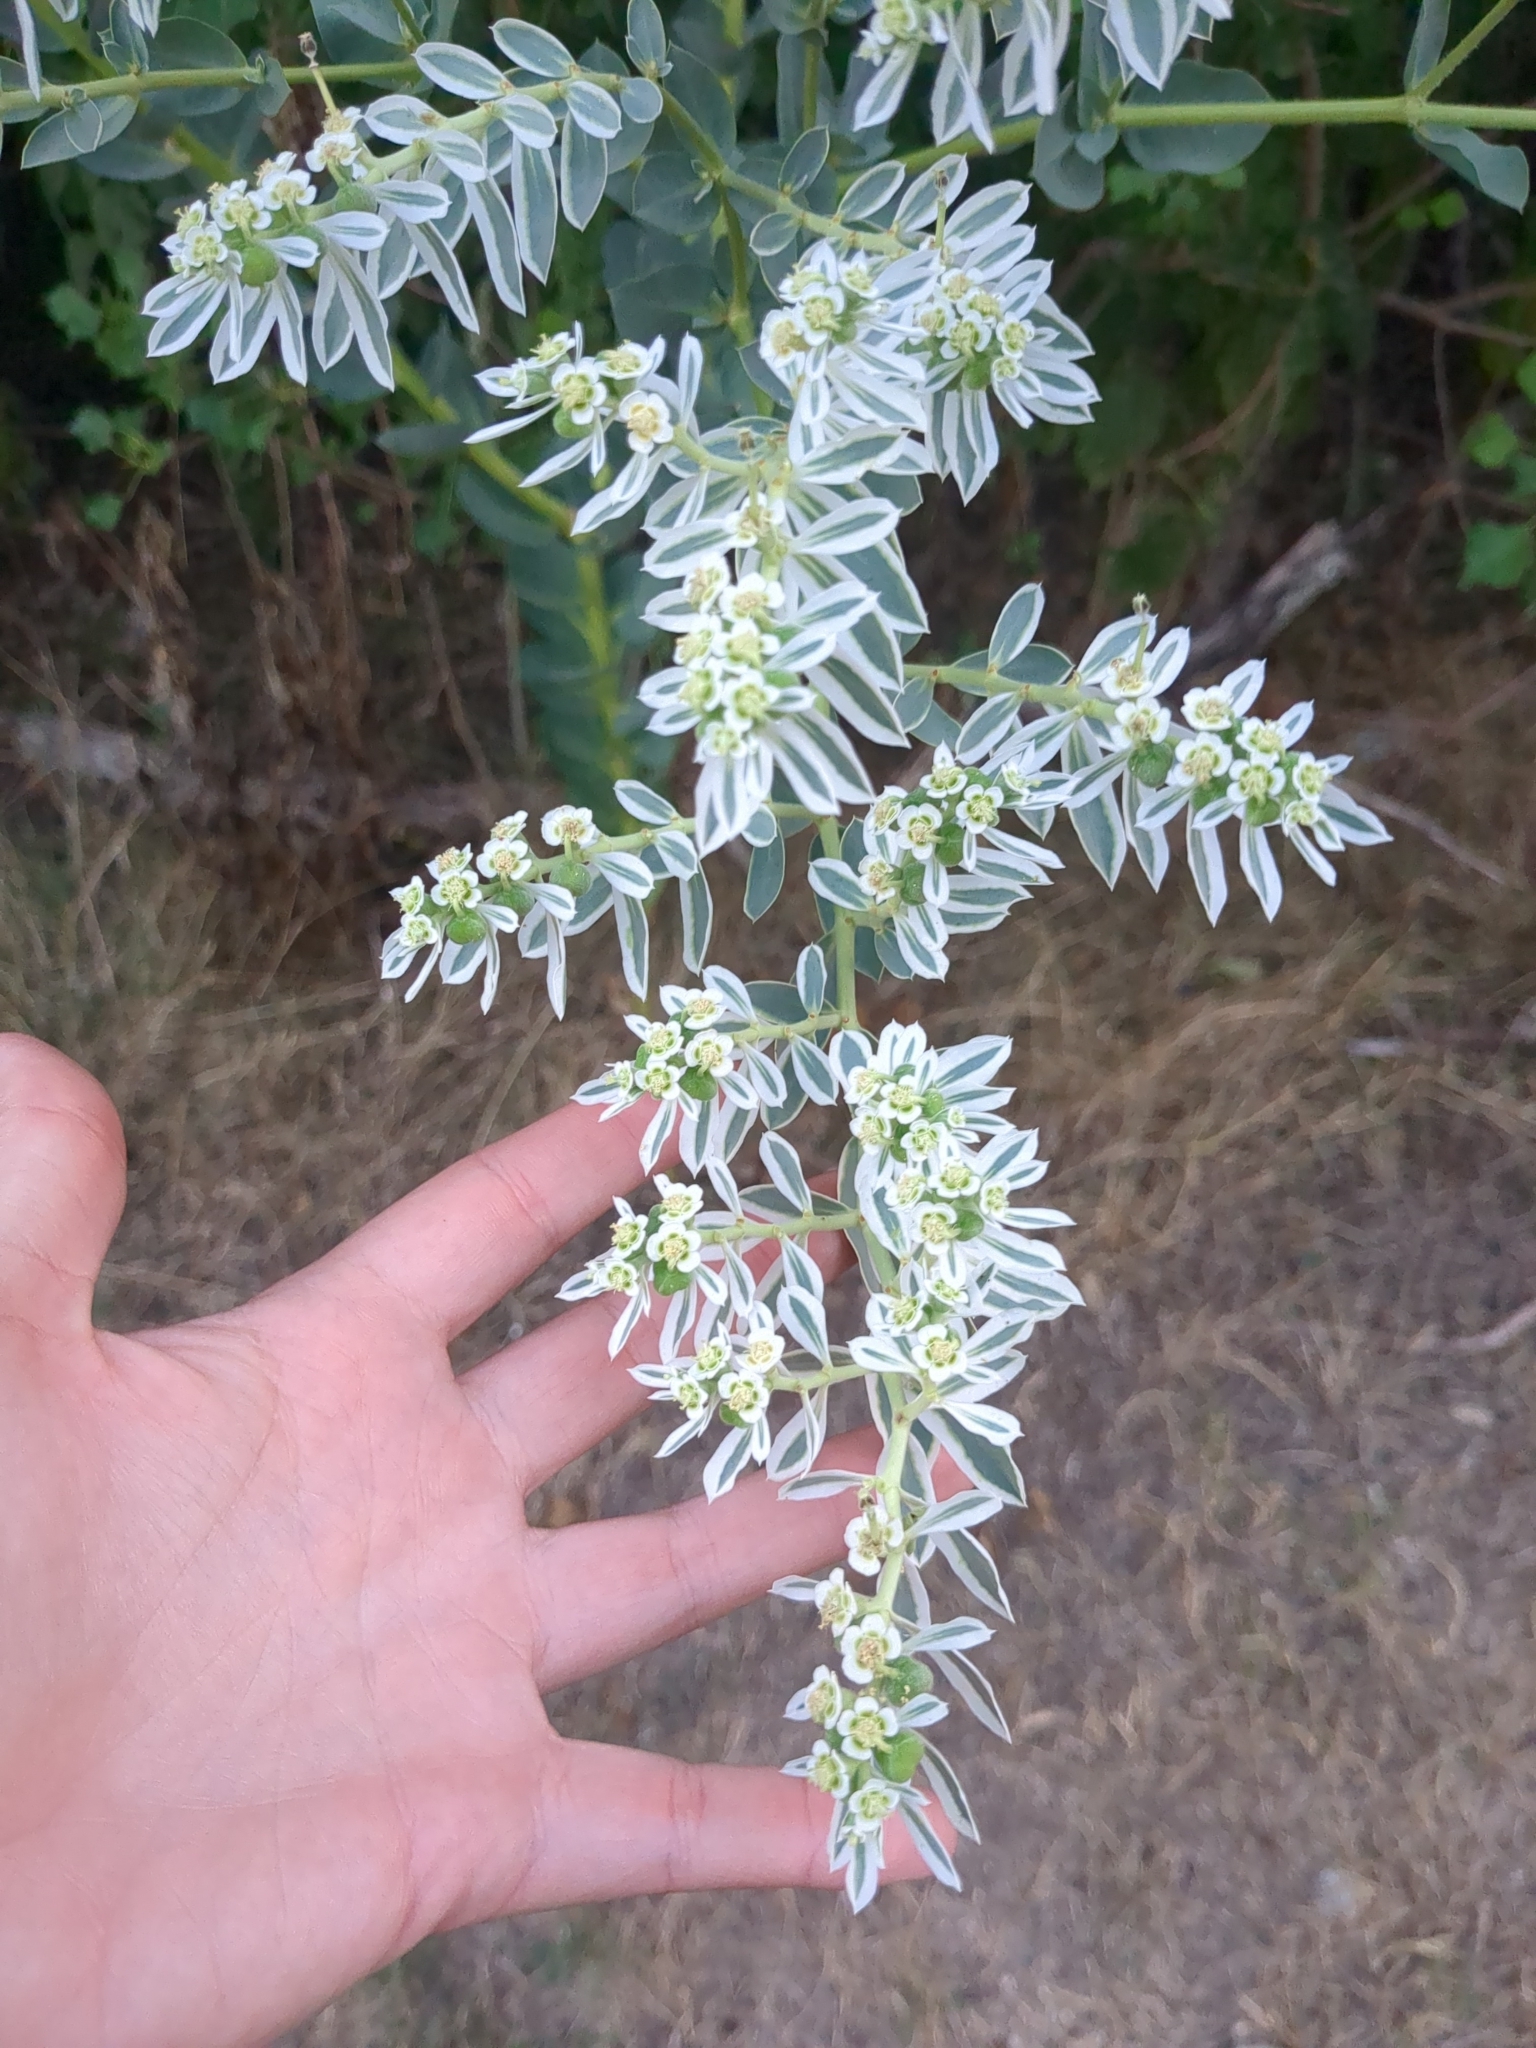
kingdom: Plantae
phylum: Tracheophyta
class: Magnoliopsida
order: Malpighiales
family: Euphorbiaceae
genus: Euphorbia
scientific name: Euphorbia marginata
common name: Ghostweed
